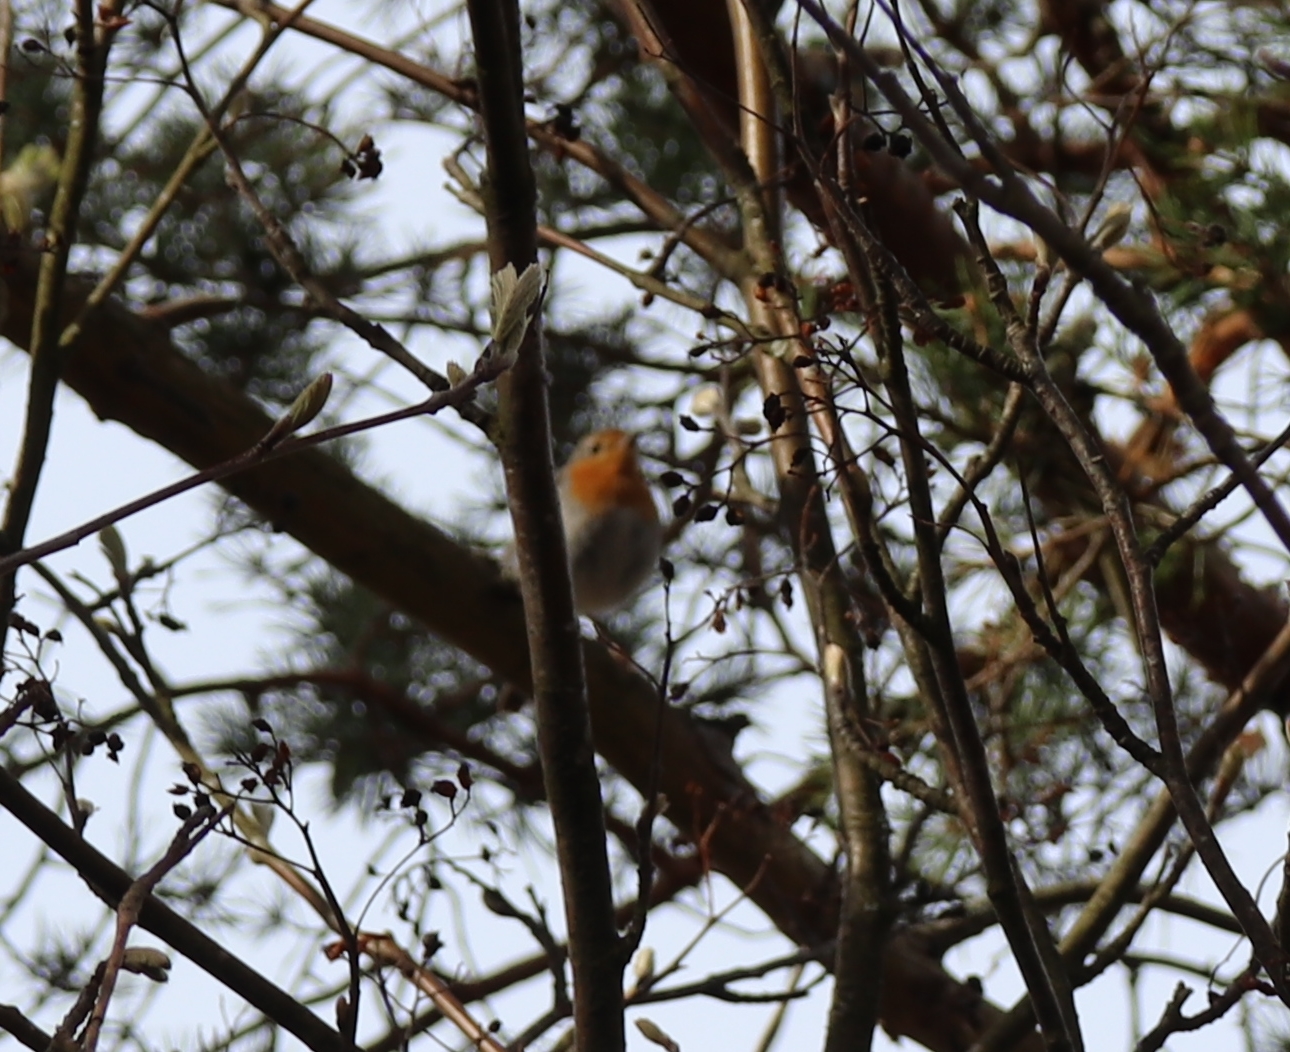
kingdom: Animalia
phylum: Chordata
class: Aves
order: Passeriformes
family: Muscicapidae
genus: Erithacus
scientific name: Erithacus rubecula
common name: European robin
